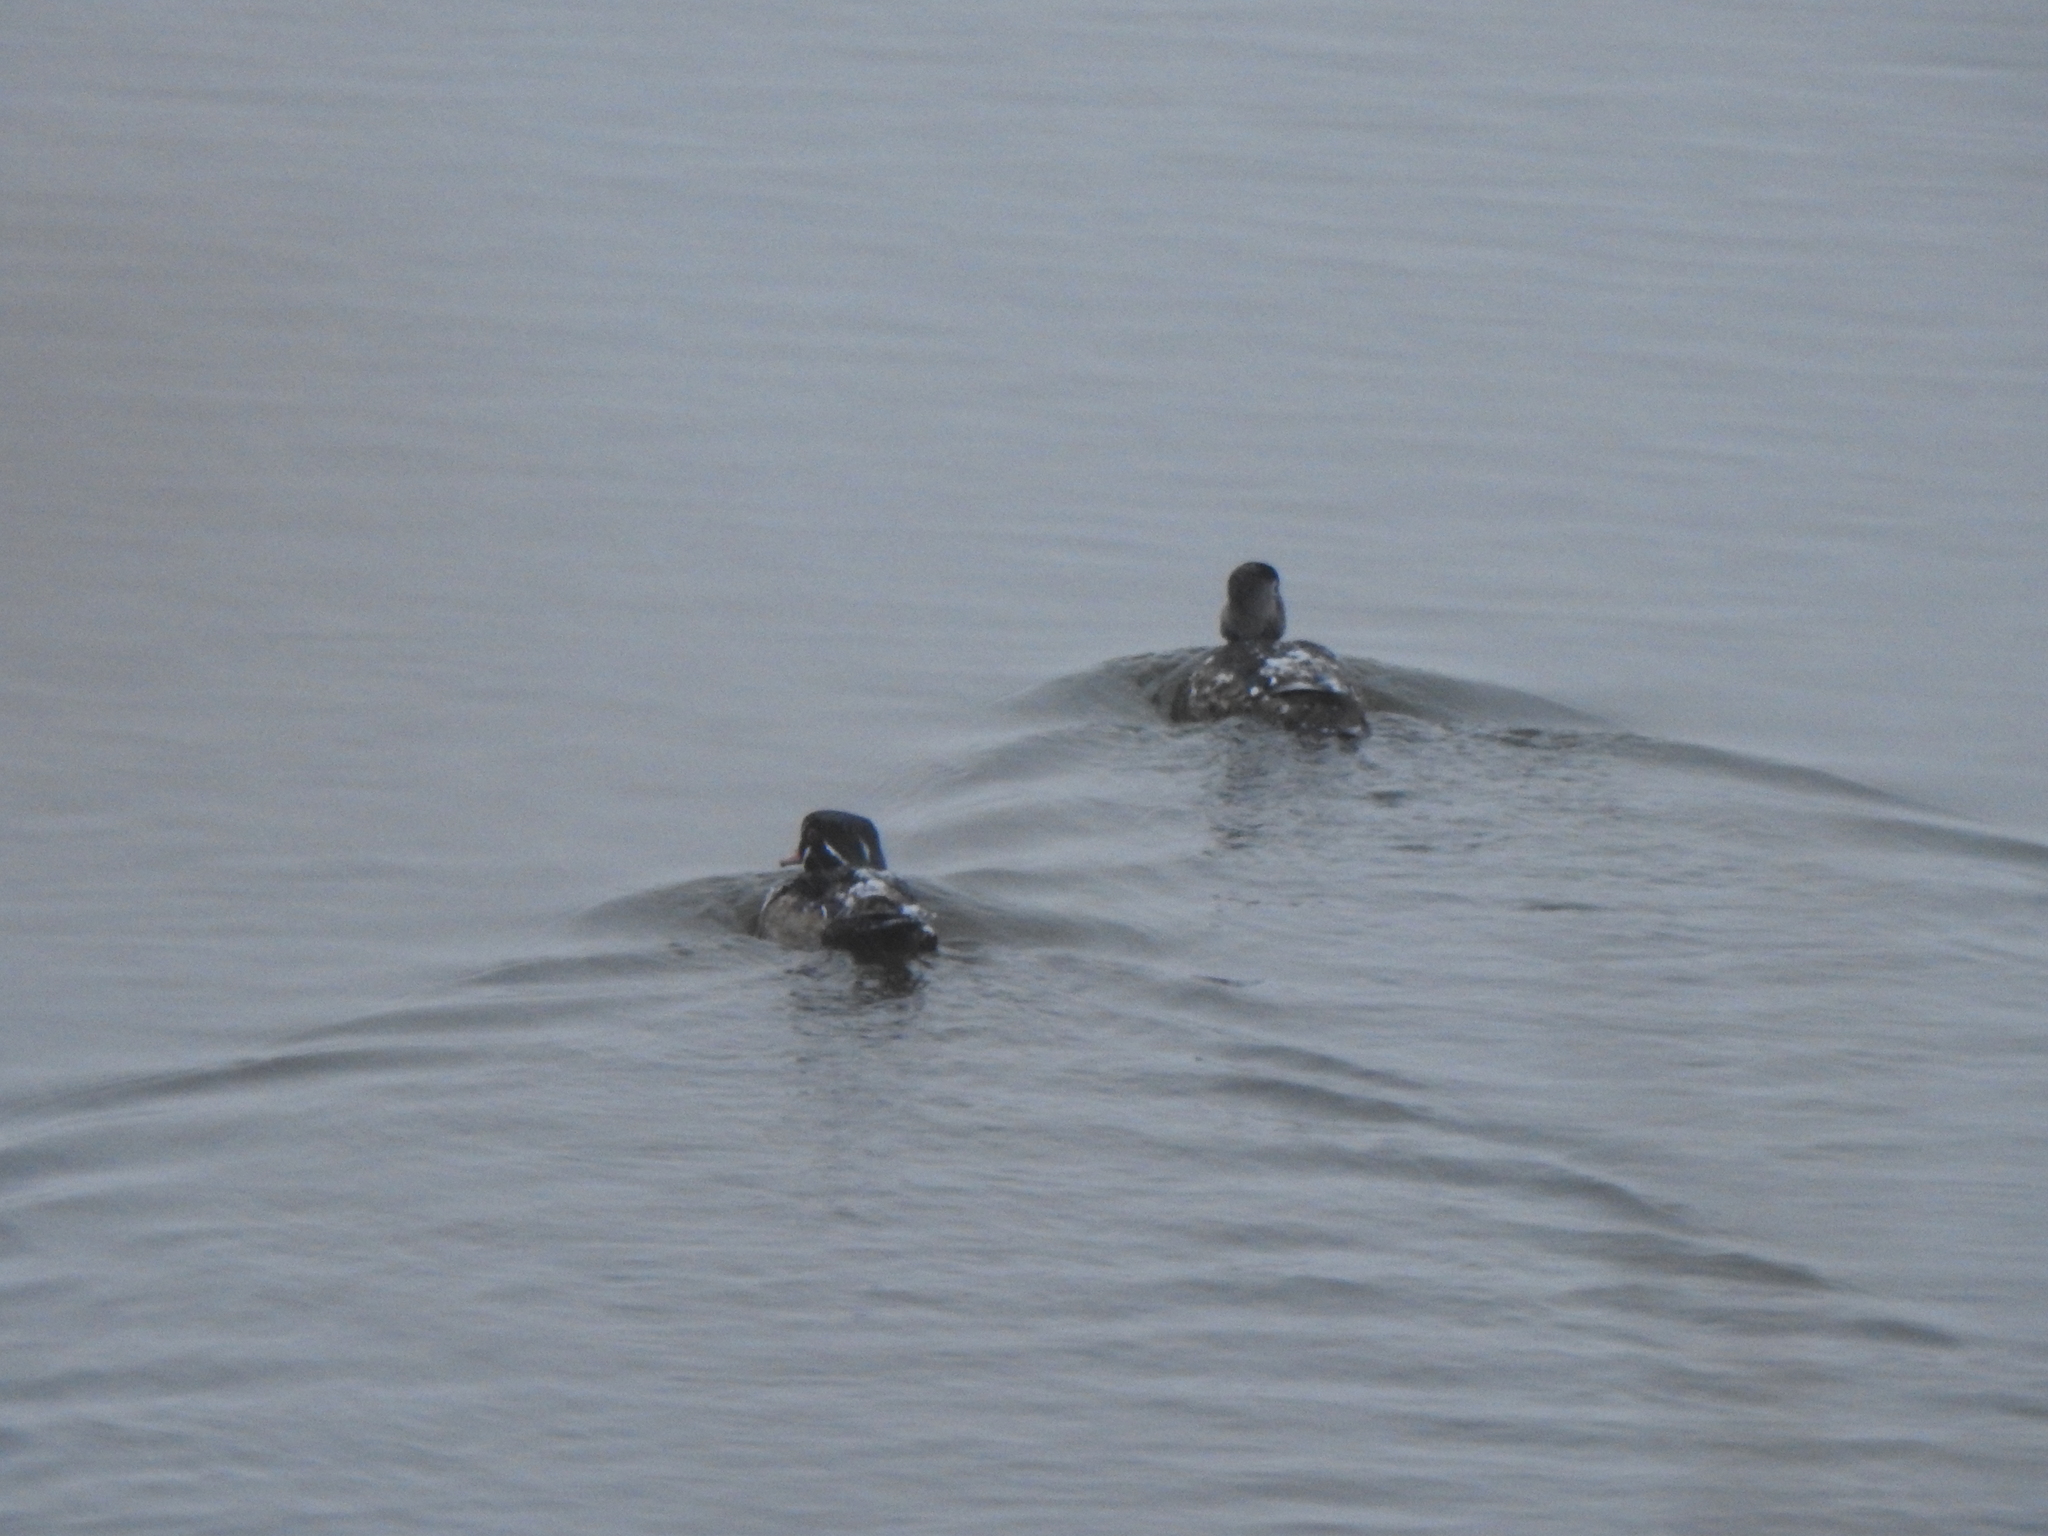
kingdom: Animalia
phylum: Chordata
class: Aves
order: Anseriformes
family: Anatidae
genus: Aix
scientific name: Aix sponsa
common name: Wood duck
